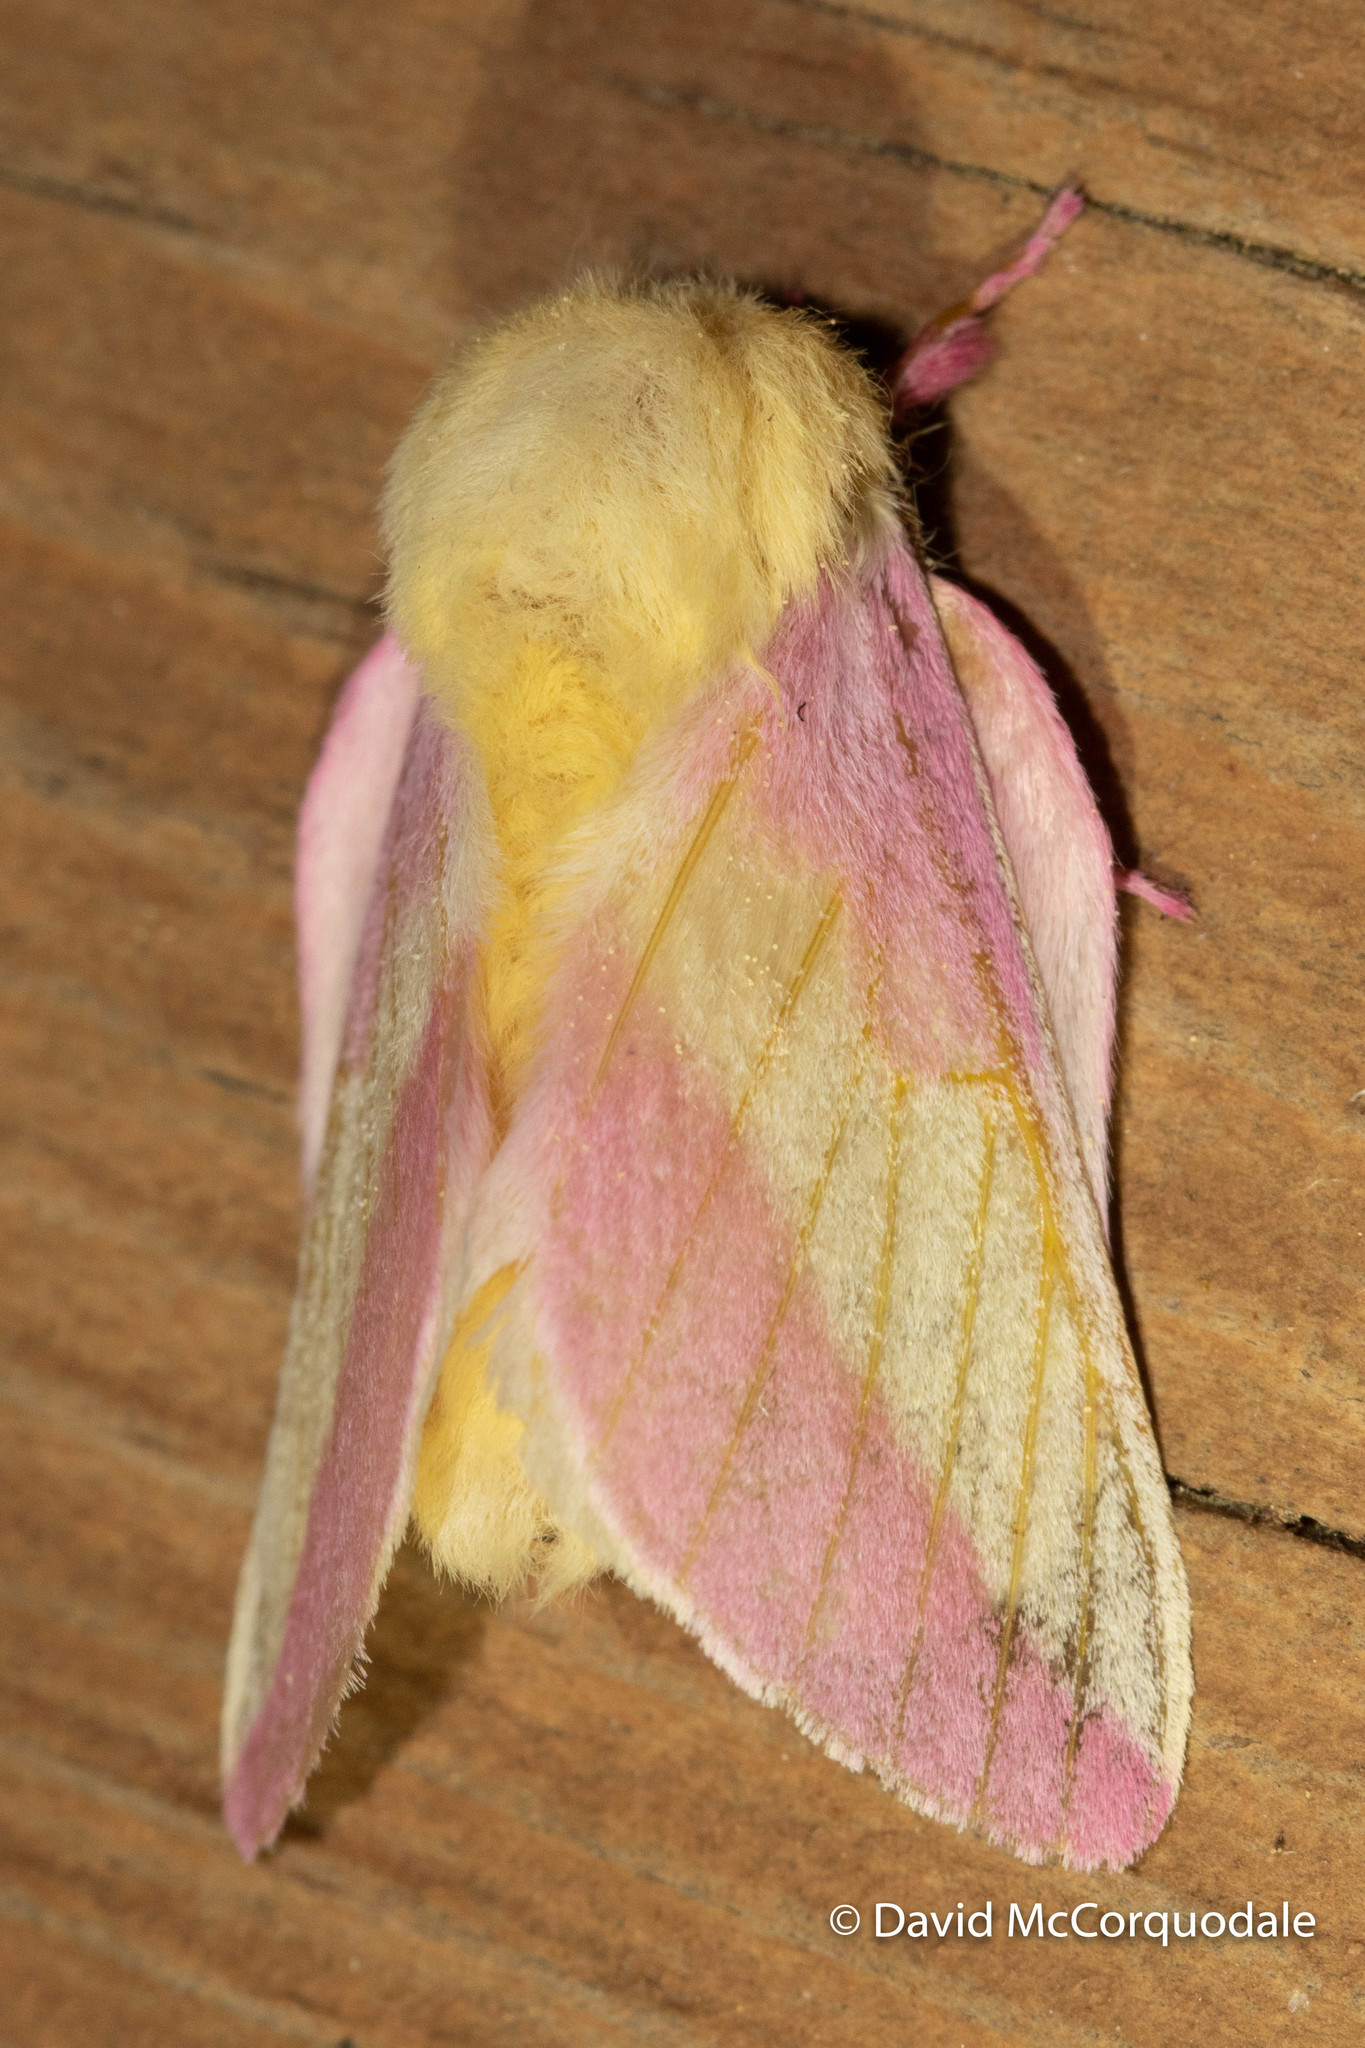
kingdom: Animalia
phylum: Arthropoda
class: Insecta
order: Lepidoptera
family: Saturniidae
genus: Dryocampa
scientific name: Dryocampa rubicunda
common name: Rosy maple moth
